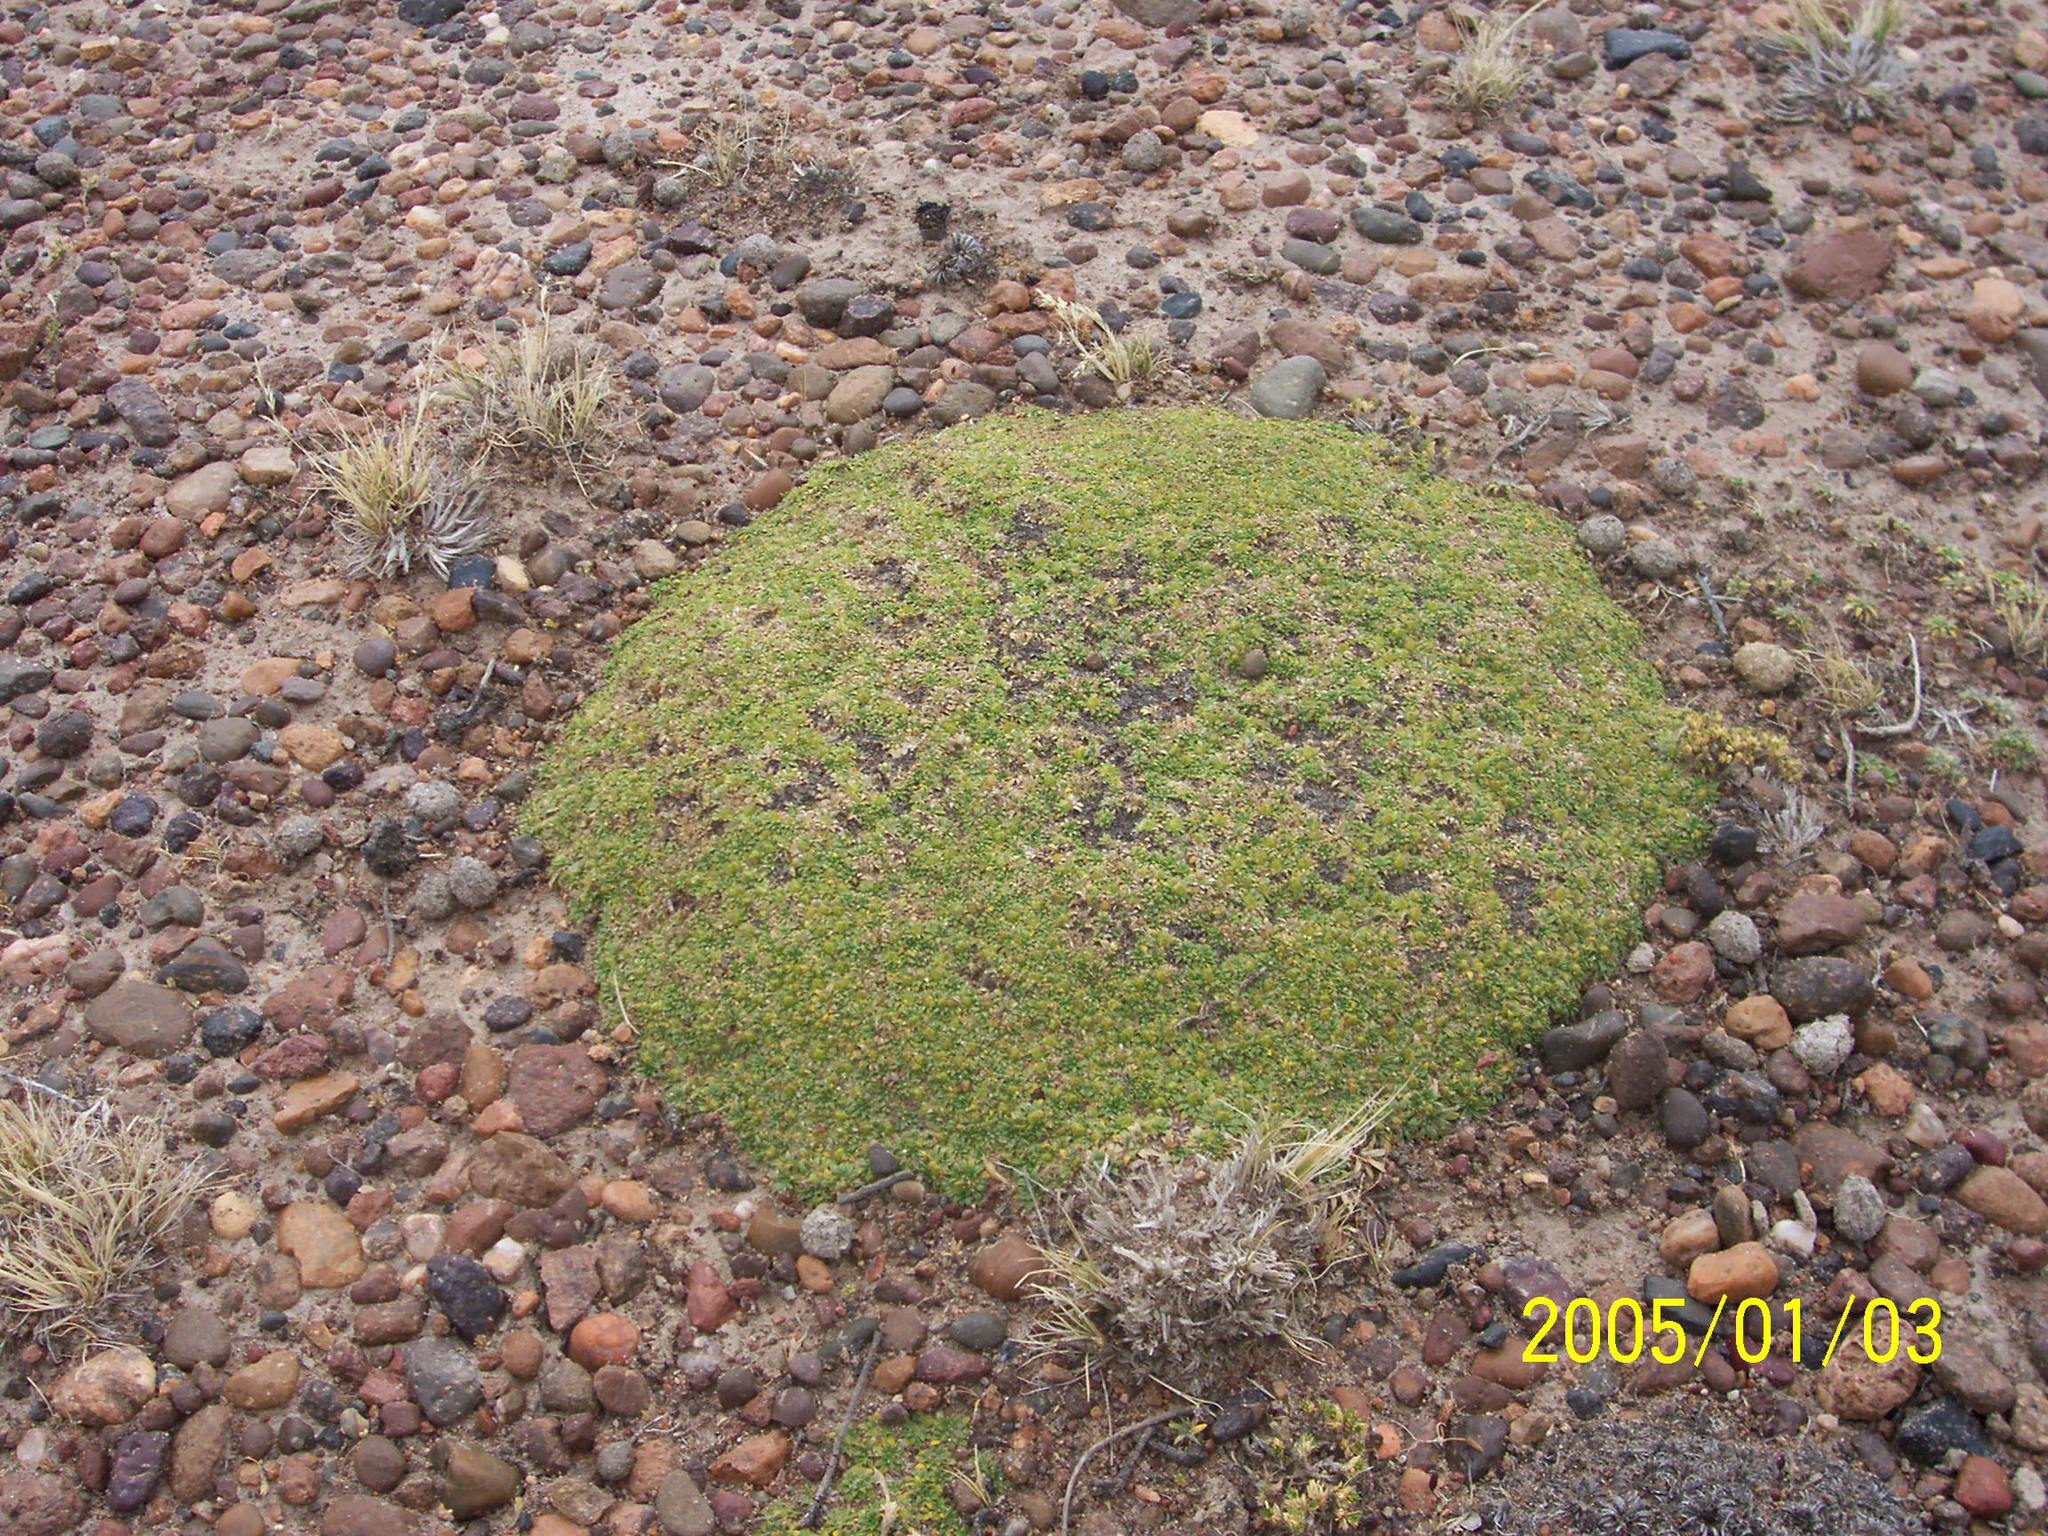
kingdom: Plantae
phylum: Tracheophyta
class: Magnoliopsida
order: Apiales
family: Apiaceae
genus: Azorella
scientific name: Azorella monantha
